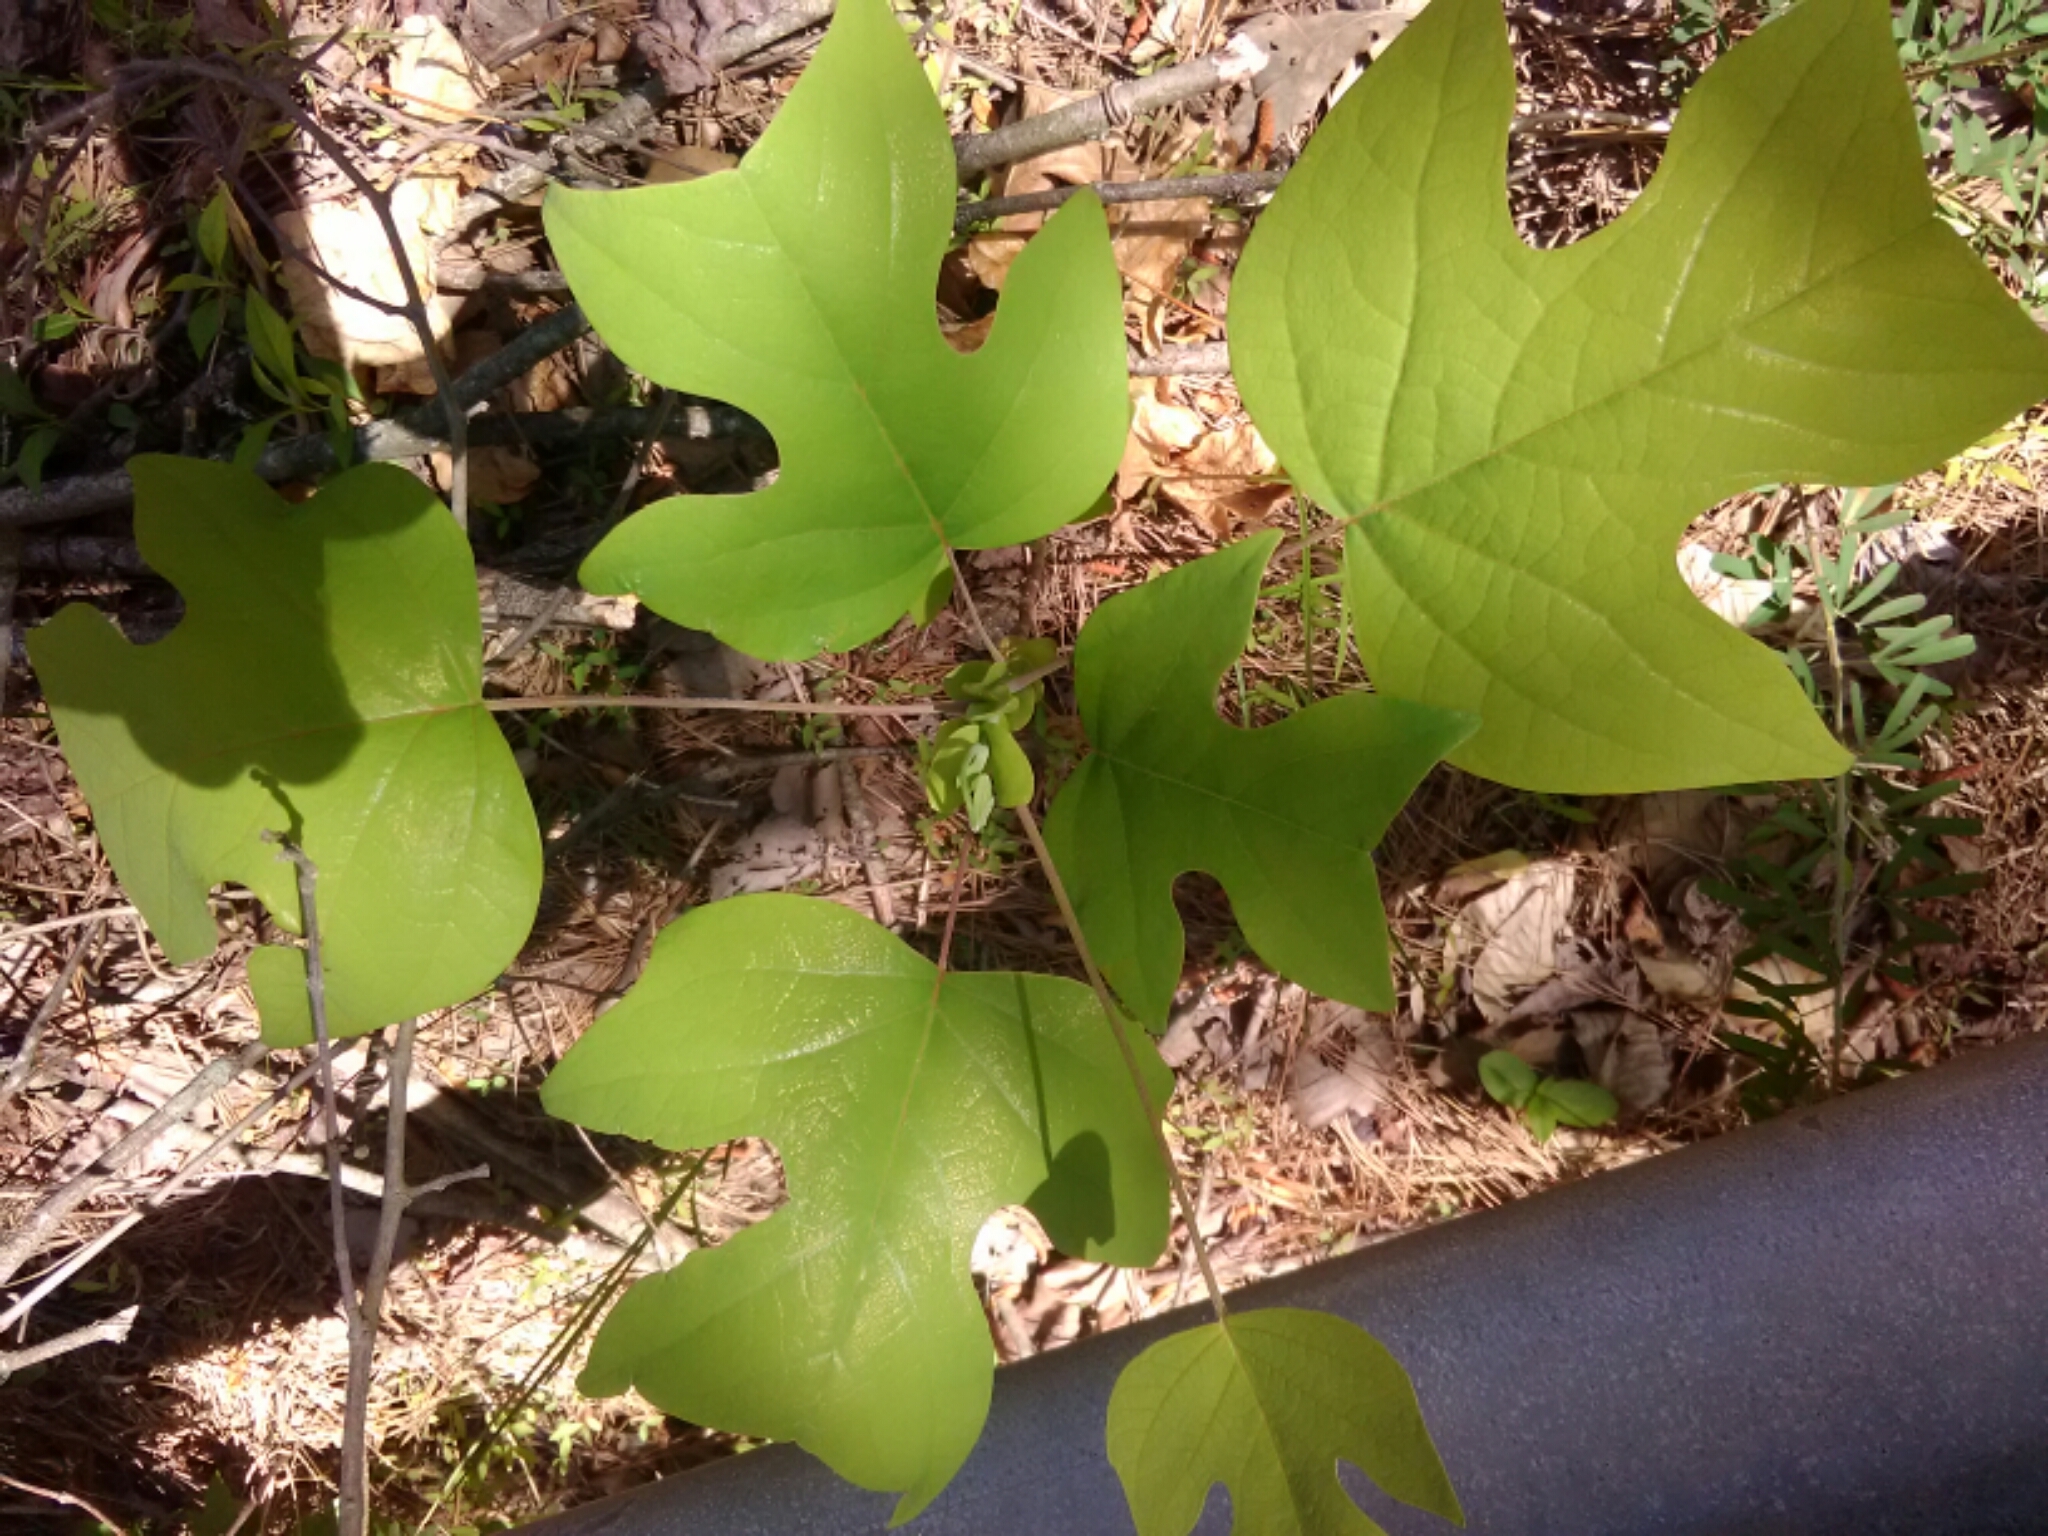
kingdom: Plantae
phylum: Tracheophyta
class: Magnoliopsida
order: Magnoliales
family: Magnoliaceae
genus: Liriodendron
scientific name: Liriodendron tulipifera
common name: Tulip tree
